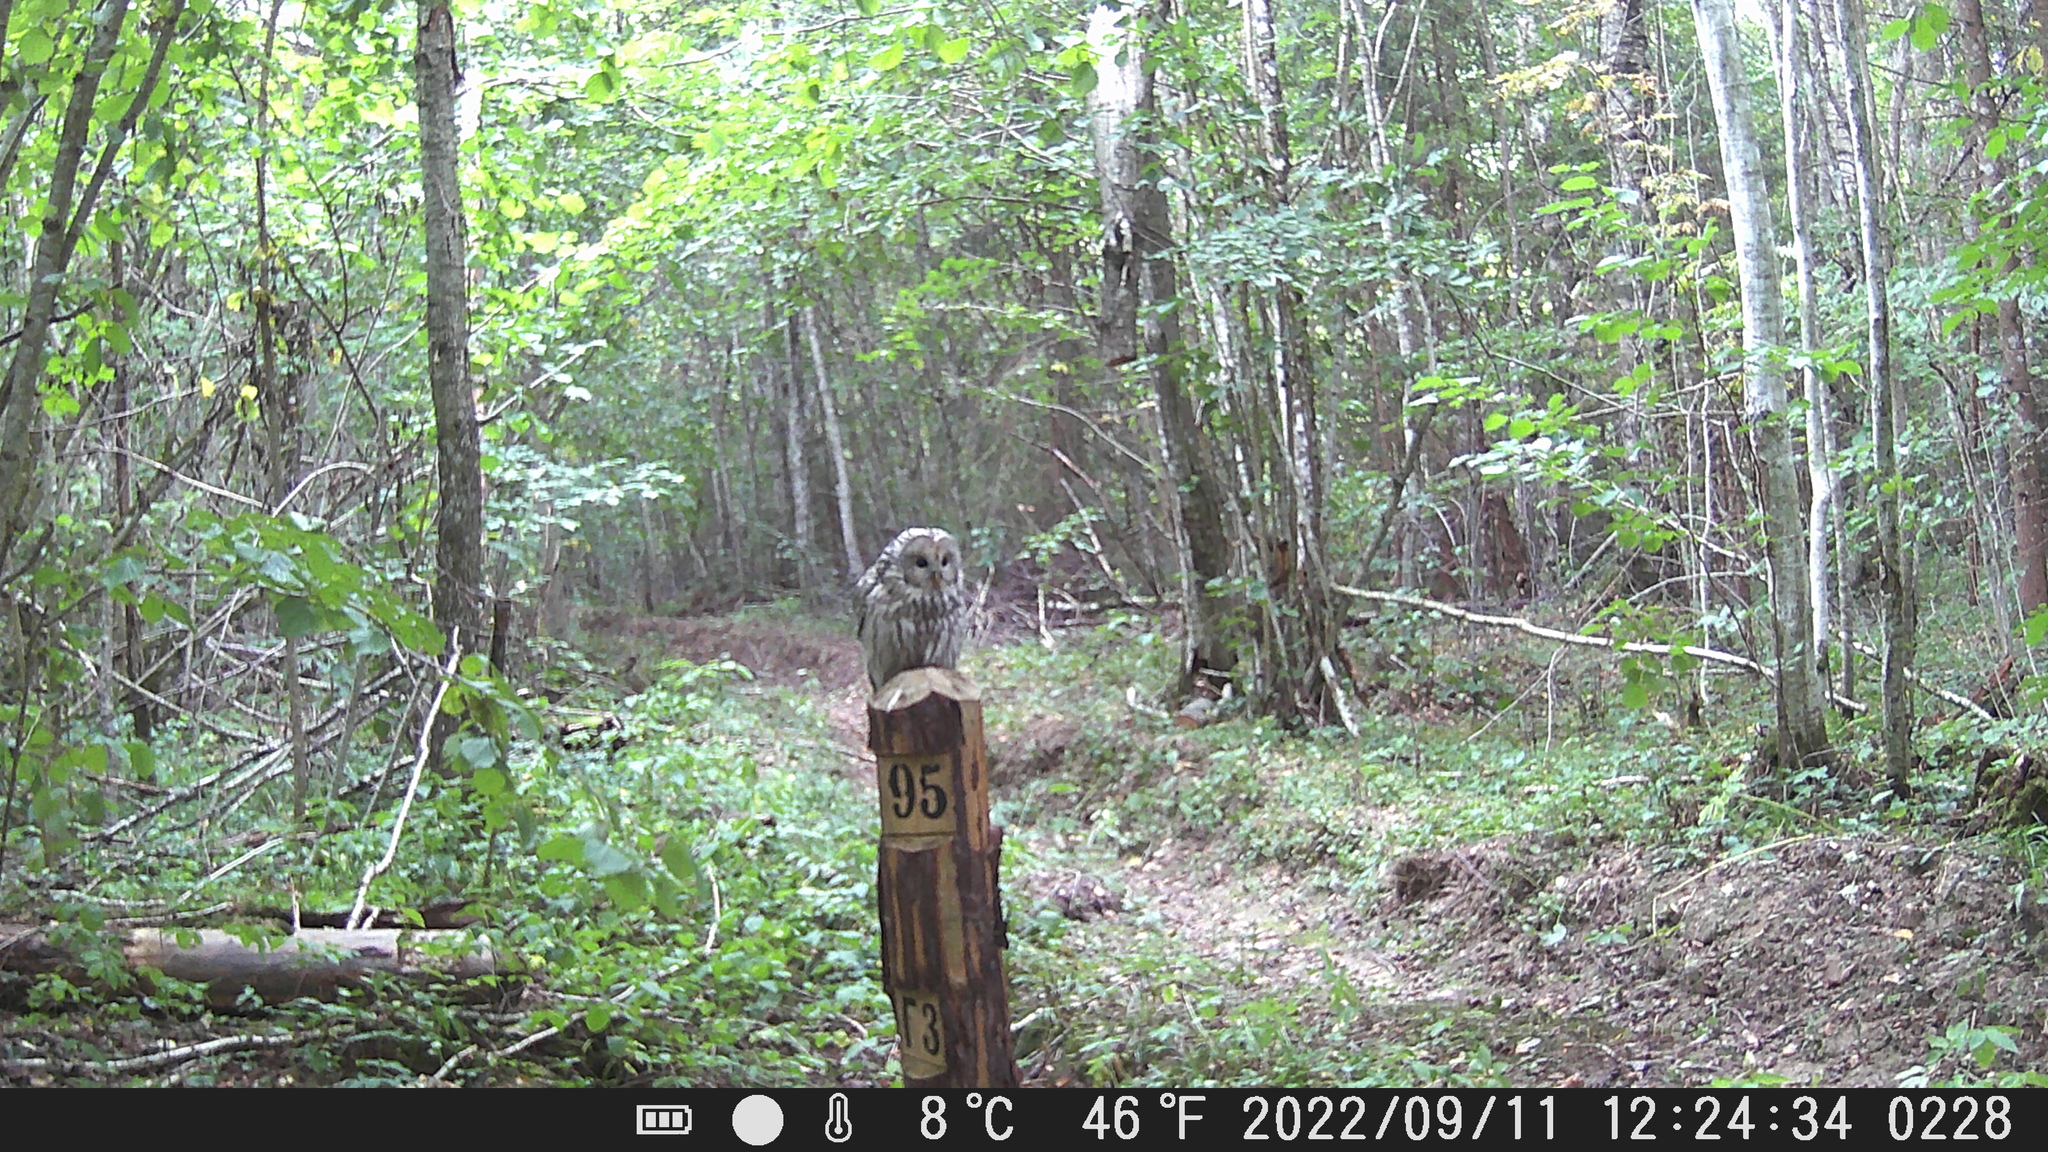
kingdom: Animalia
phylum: Chordata
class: Aves
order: Strigiformes
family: Strigidae
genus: Strix
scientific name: Strix uralensis
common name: Ural owl
